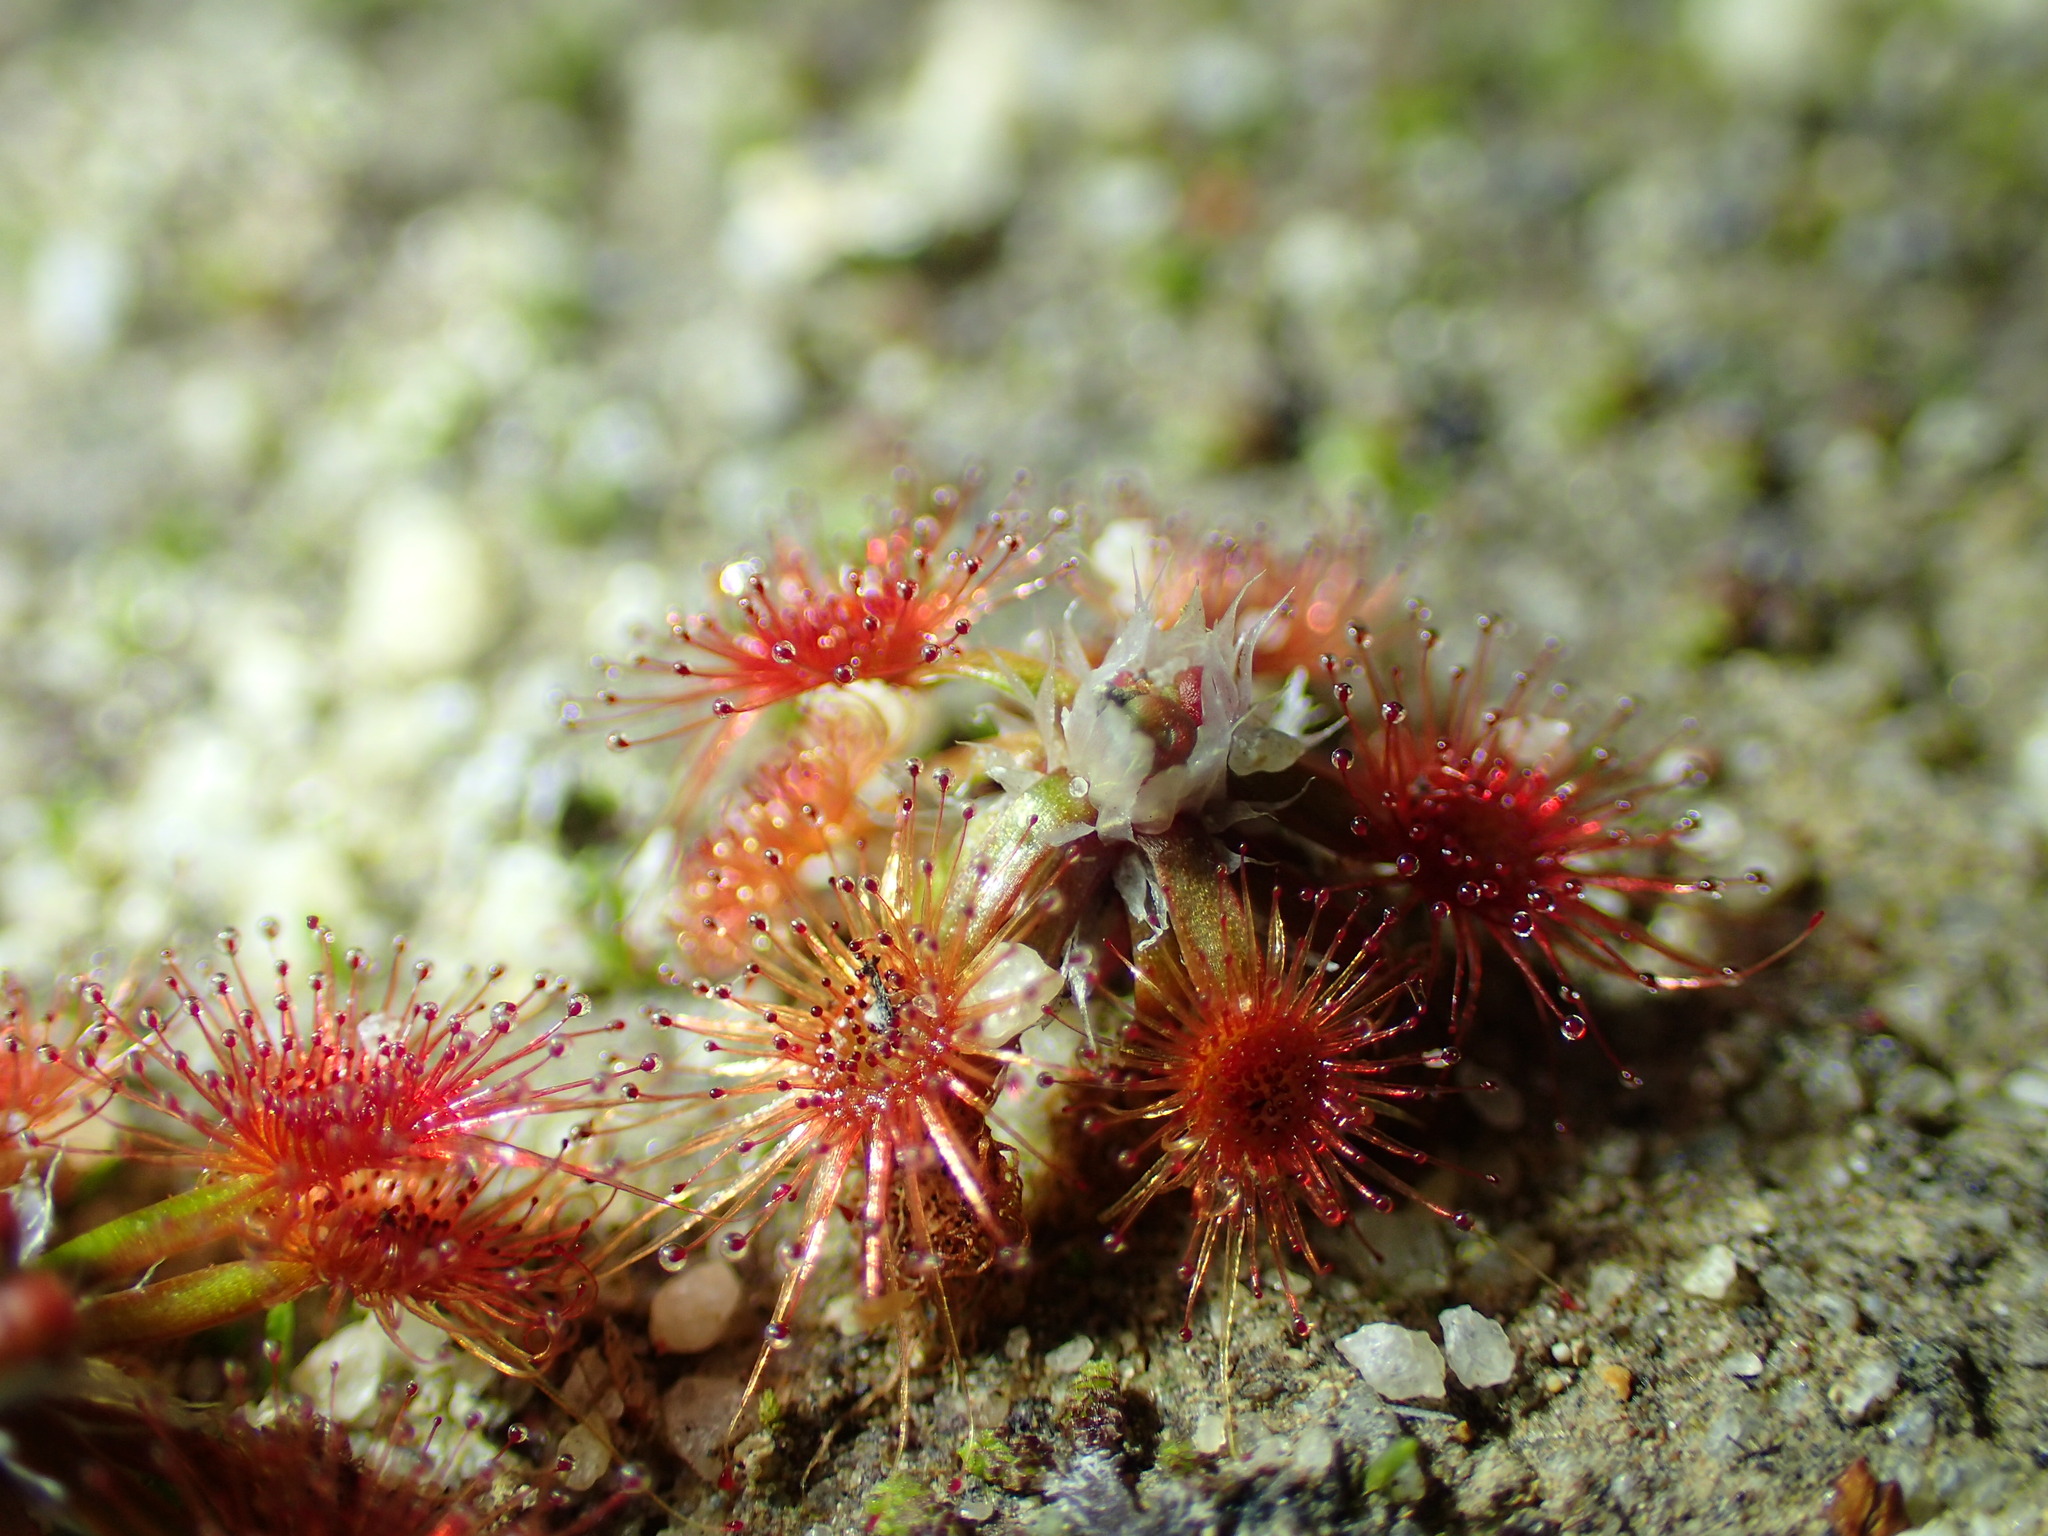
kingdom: Plantae
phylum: Tracheophyta
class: Magnoliopsida
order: Caryophyllales
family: Droseraceae
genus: Drosera
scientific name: Drosera androsacea
